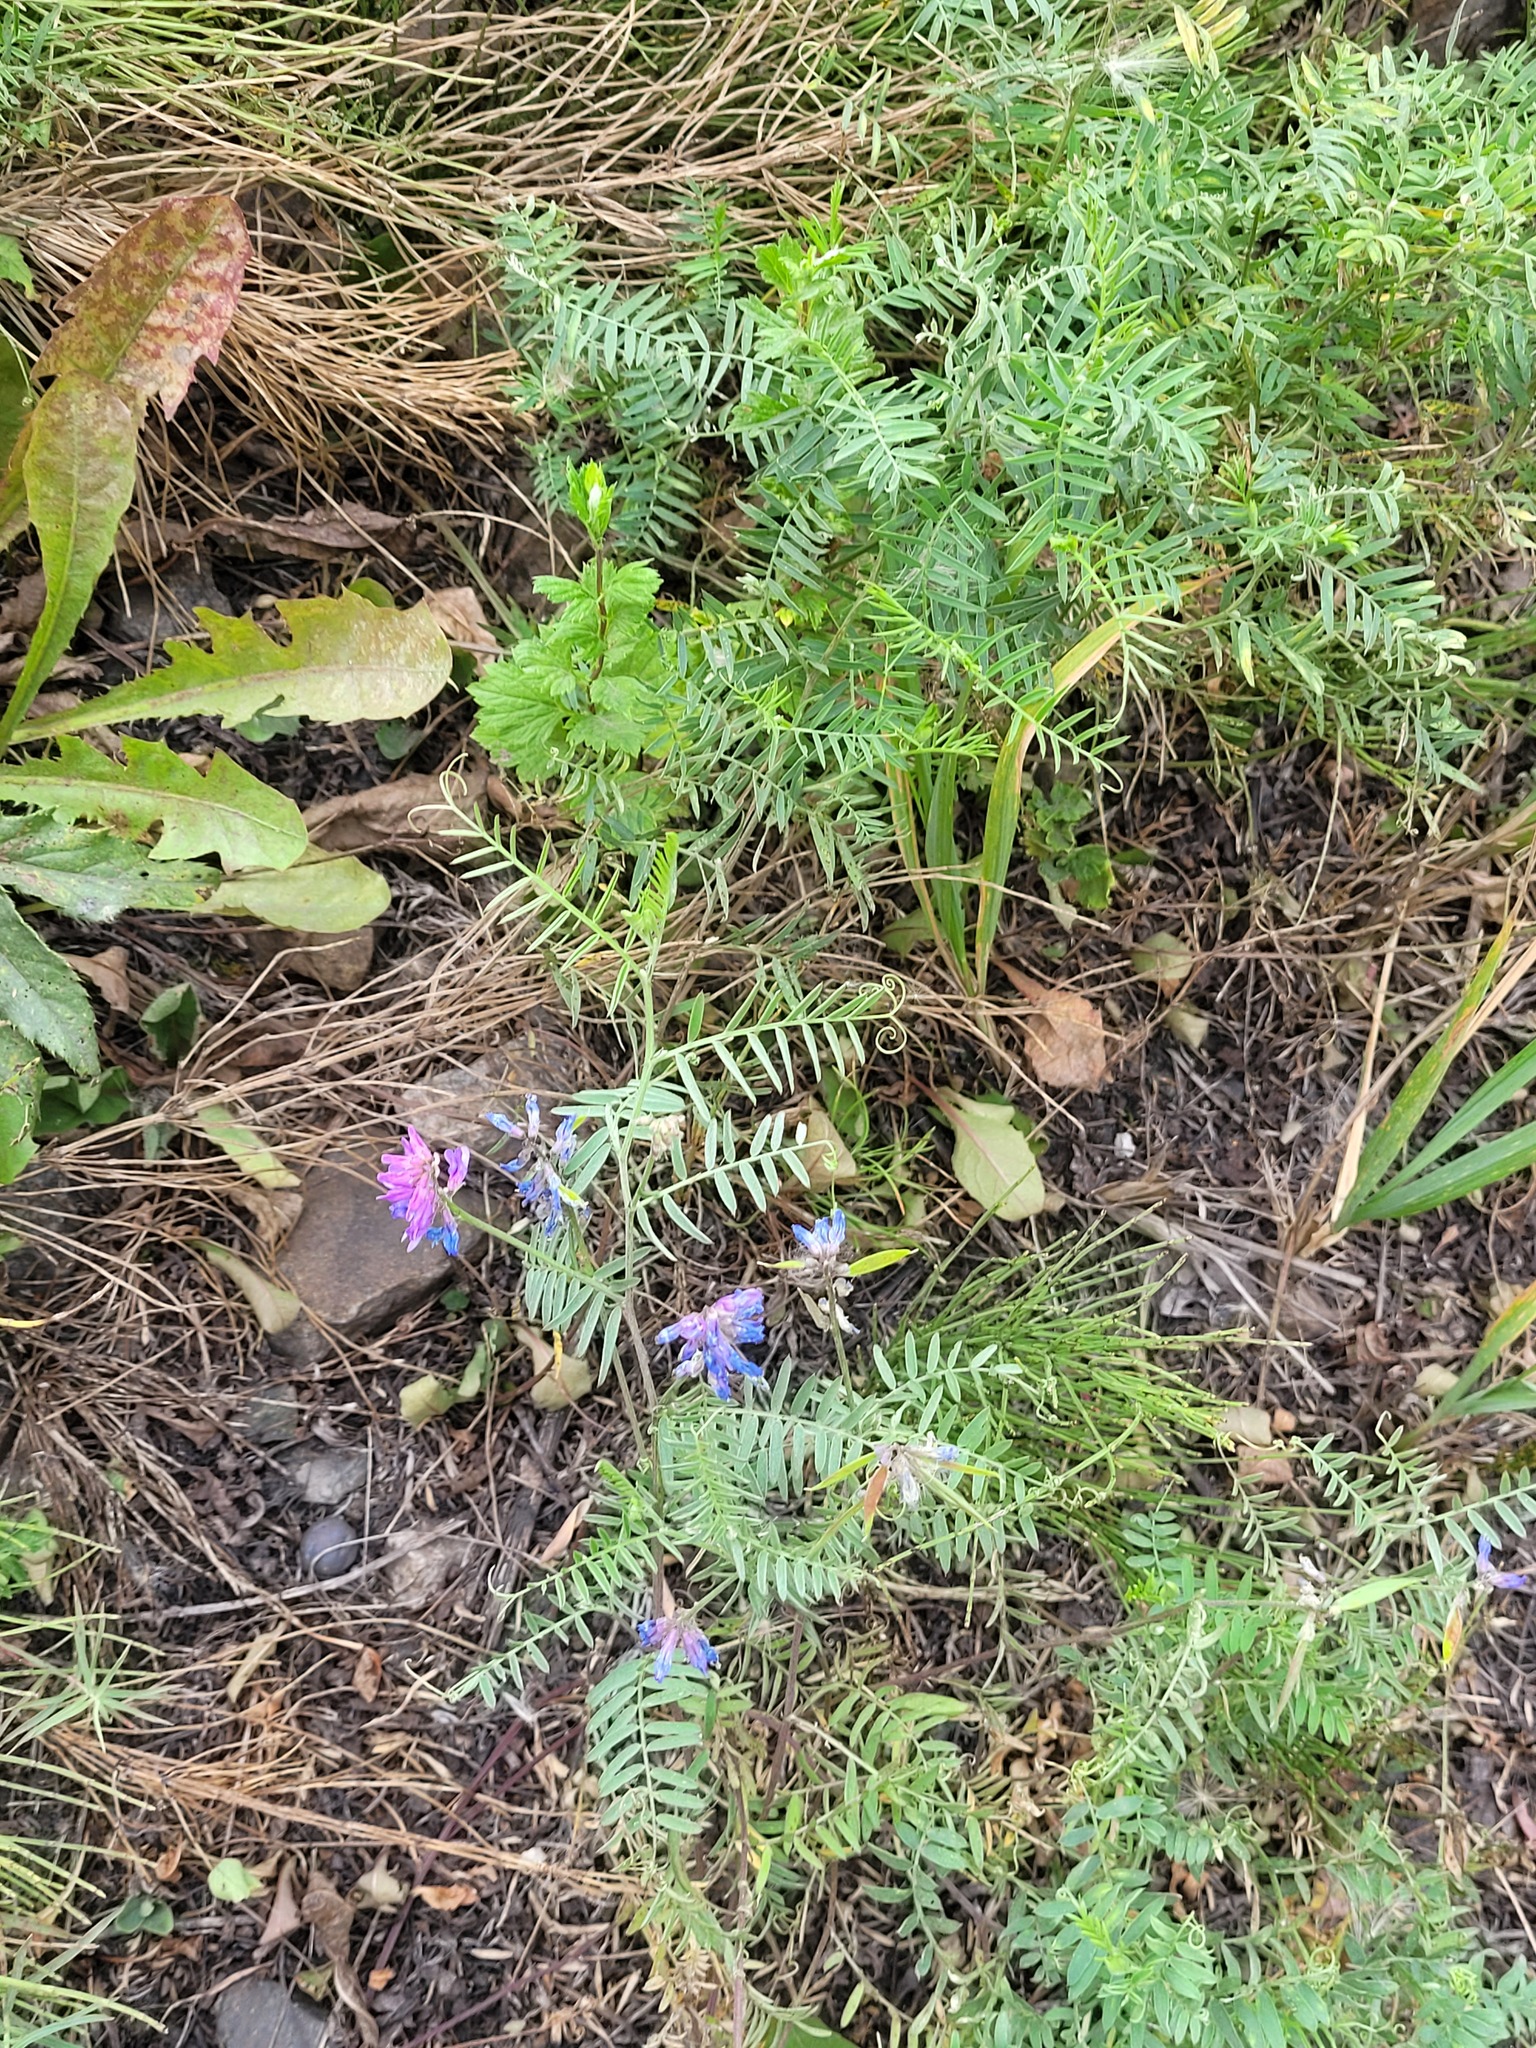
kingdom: Plantae
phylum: Tracheophyta
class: Magnoliopsida
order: Fabales
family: Fabaceae
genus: Vicia
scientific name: Vicia cracca
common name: Bird vetch
